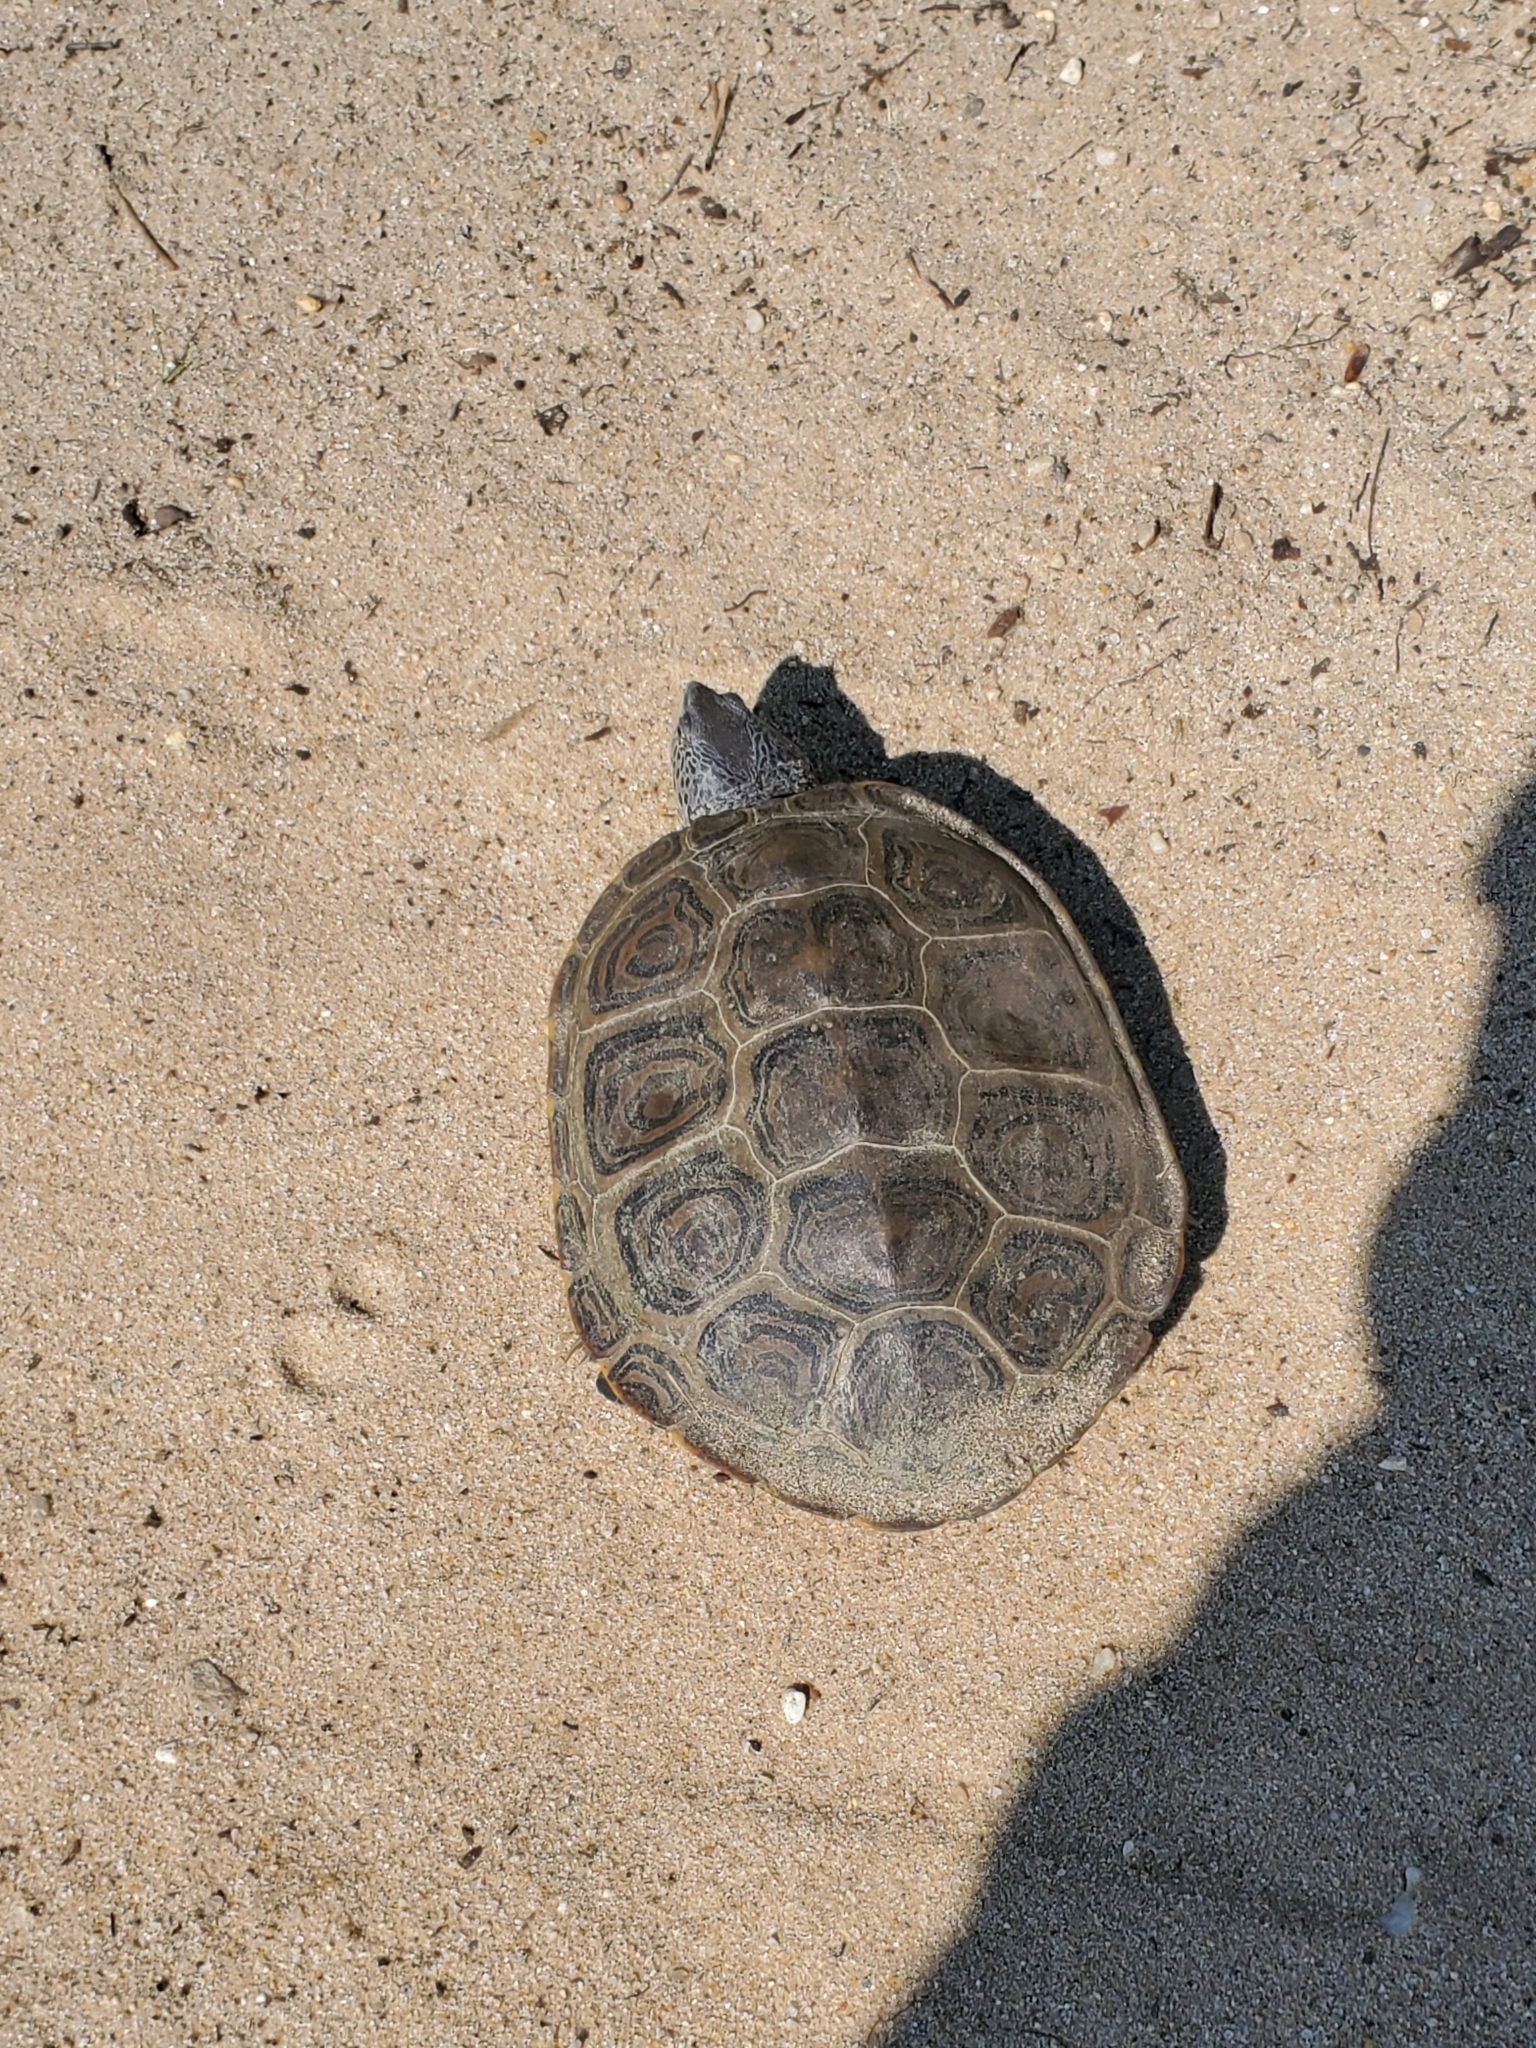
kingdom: Animalia
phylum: Chordata
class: Testudines
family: Emydidae
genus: Malaclemys
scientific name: Malaclemys terrapin
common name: Diamondback terrapin
